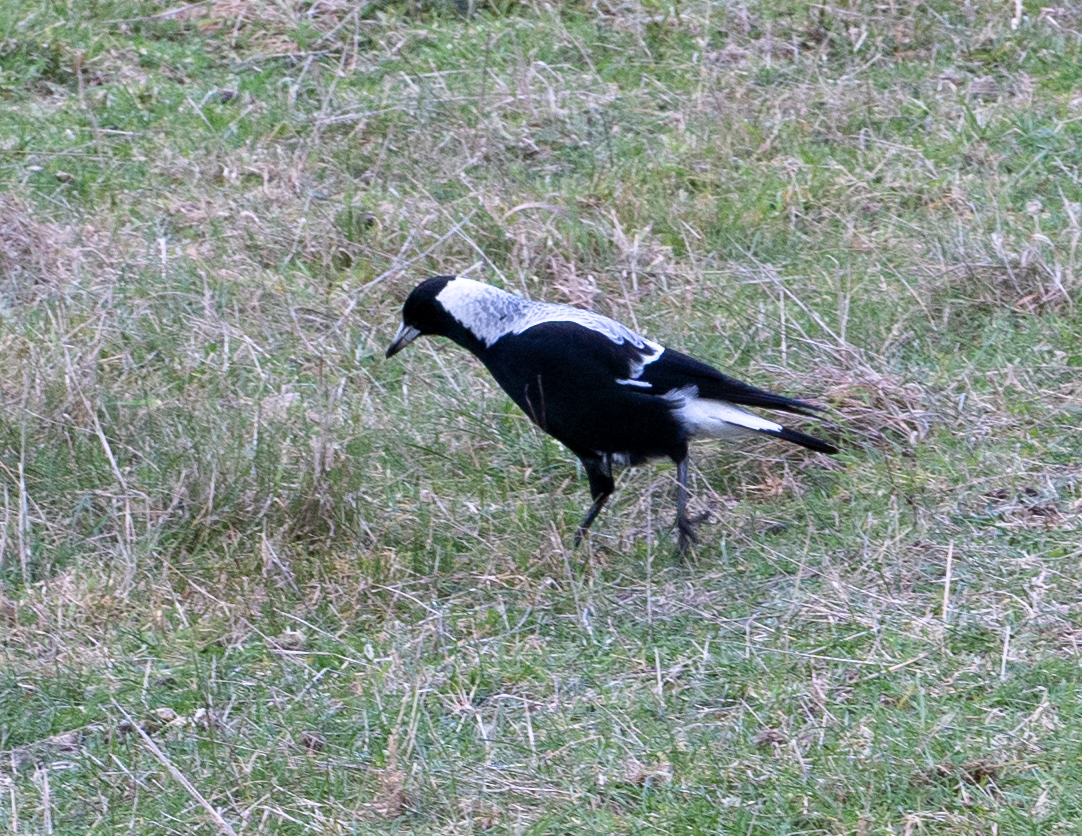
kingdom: Animalia
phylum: Chordata
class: Aves
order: Passeriformes
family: Cracticidae
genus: Gymnorhina
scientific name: Gymnorhina tibicen
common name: Australian magpie
